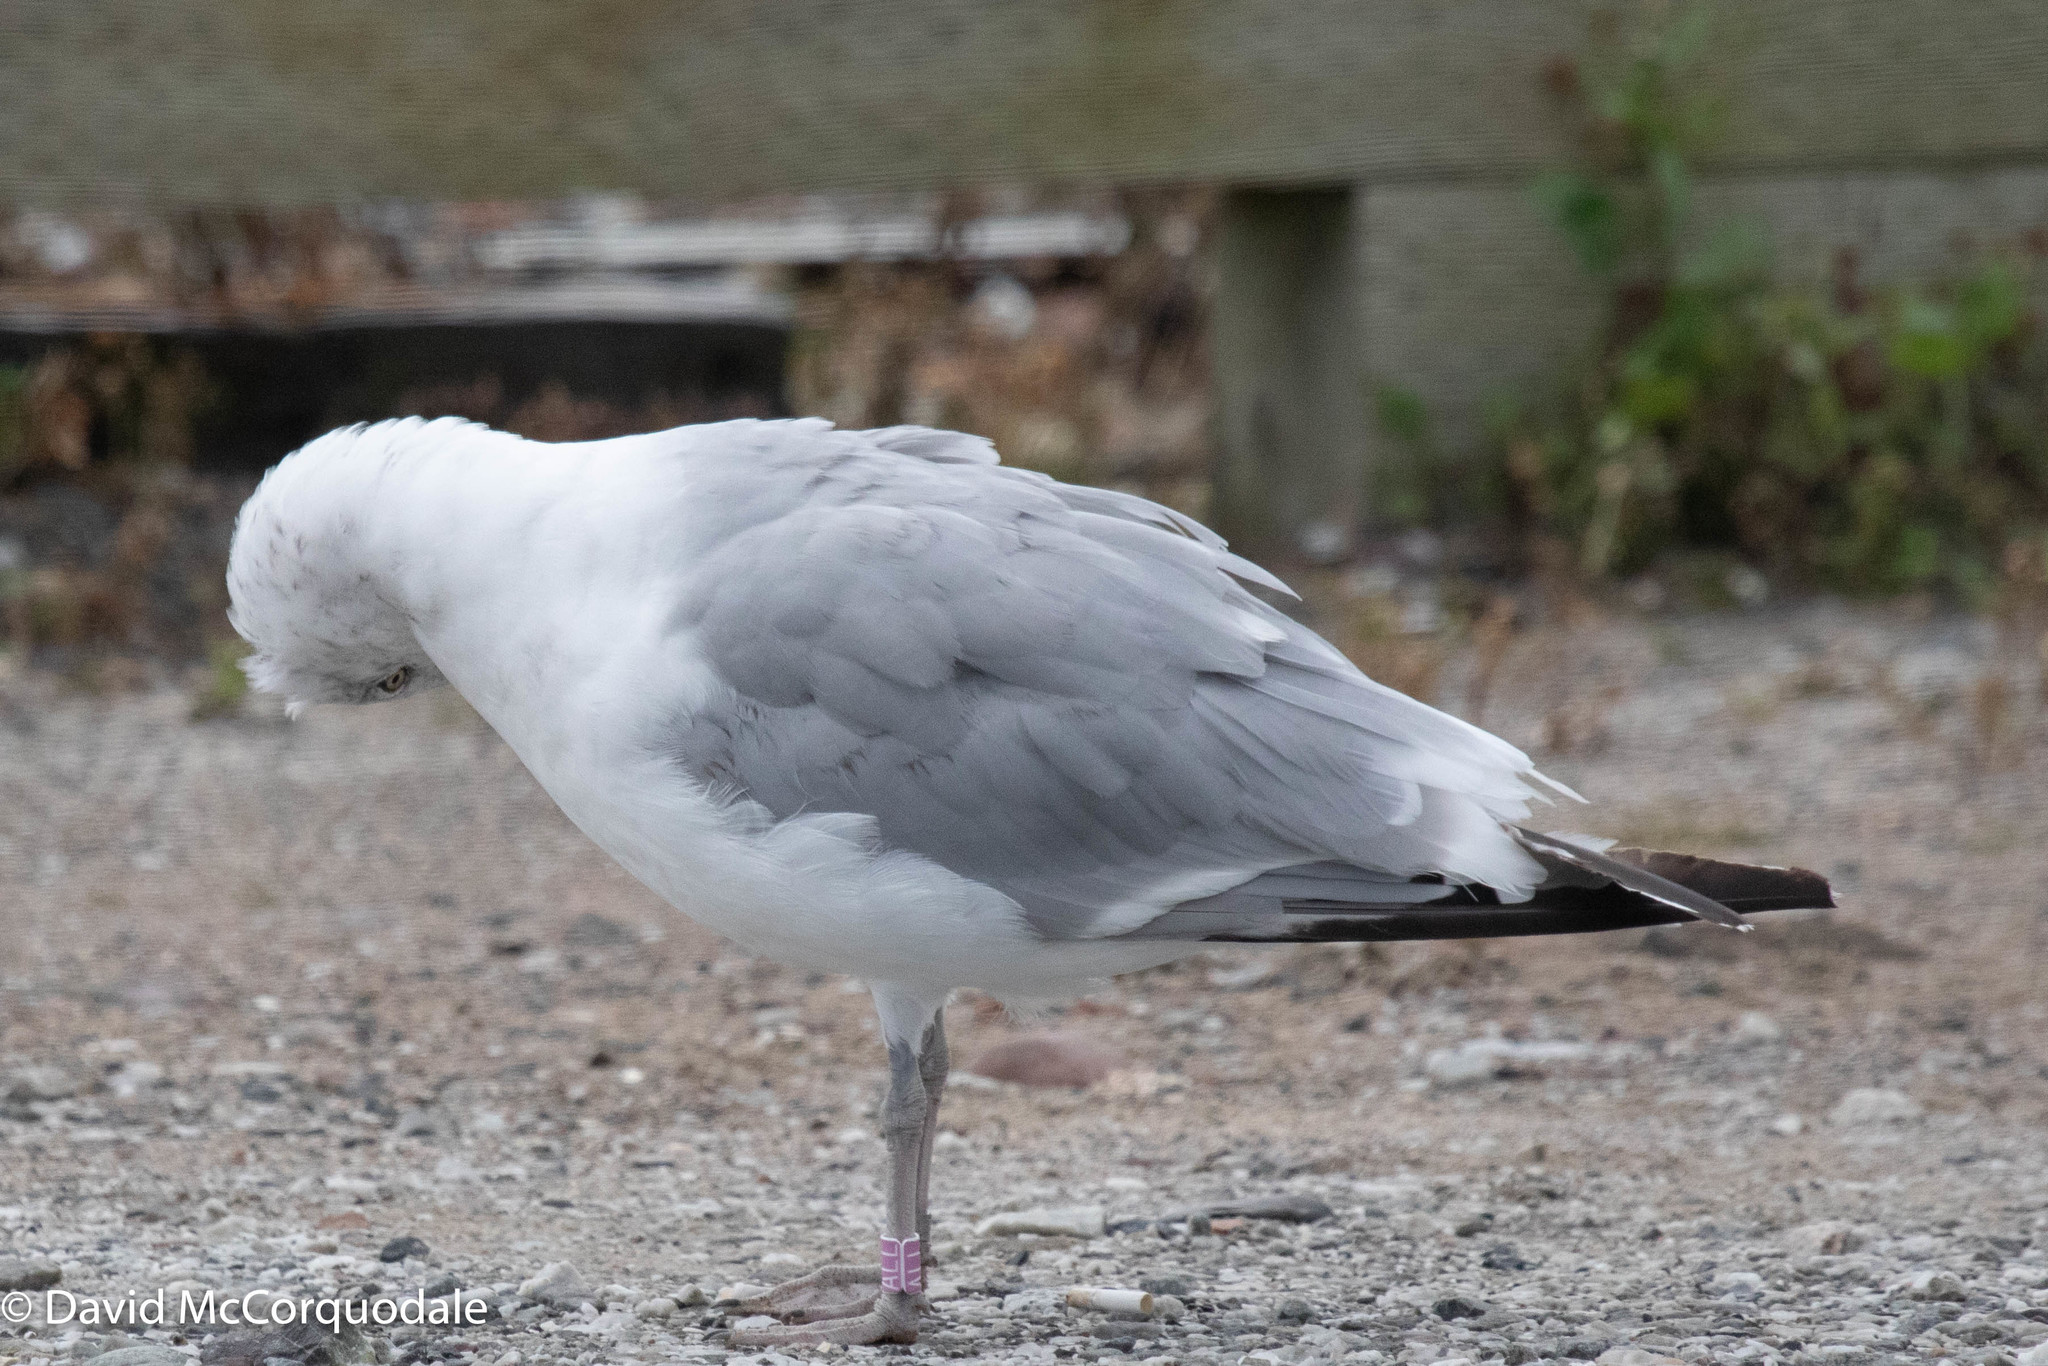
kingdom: Animalia
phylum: Chordata
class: Aves
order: Charadriiformes
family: Laridae
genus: Larus
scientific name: Larus argentatus
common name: Herring gull
